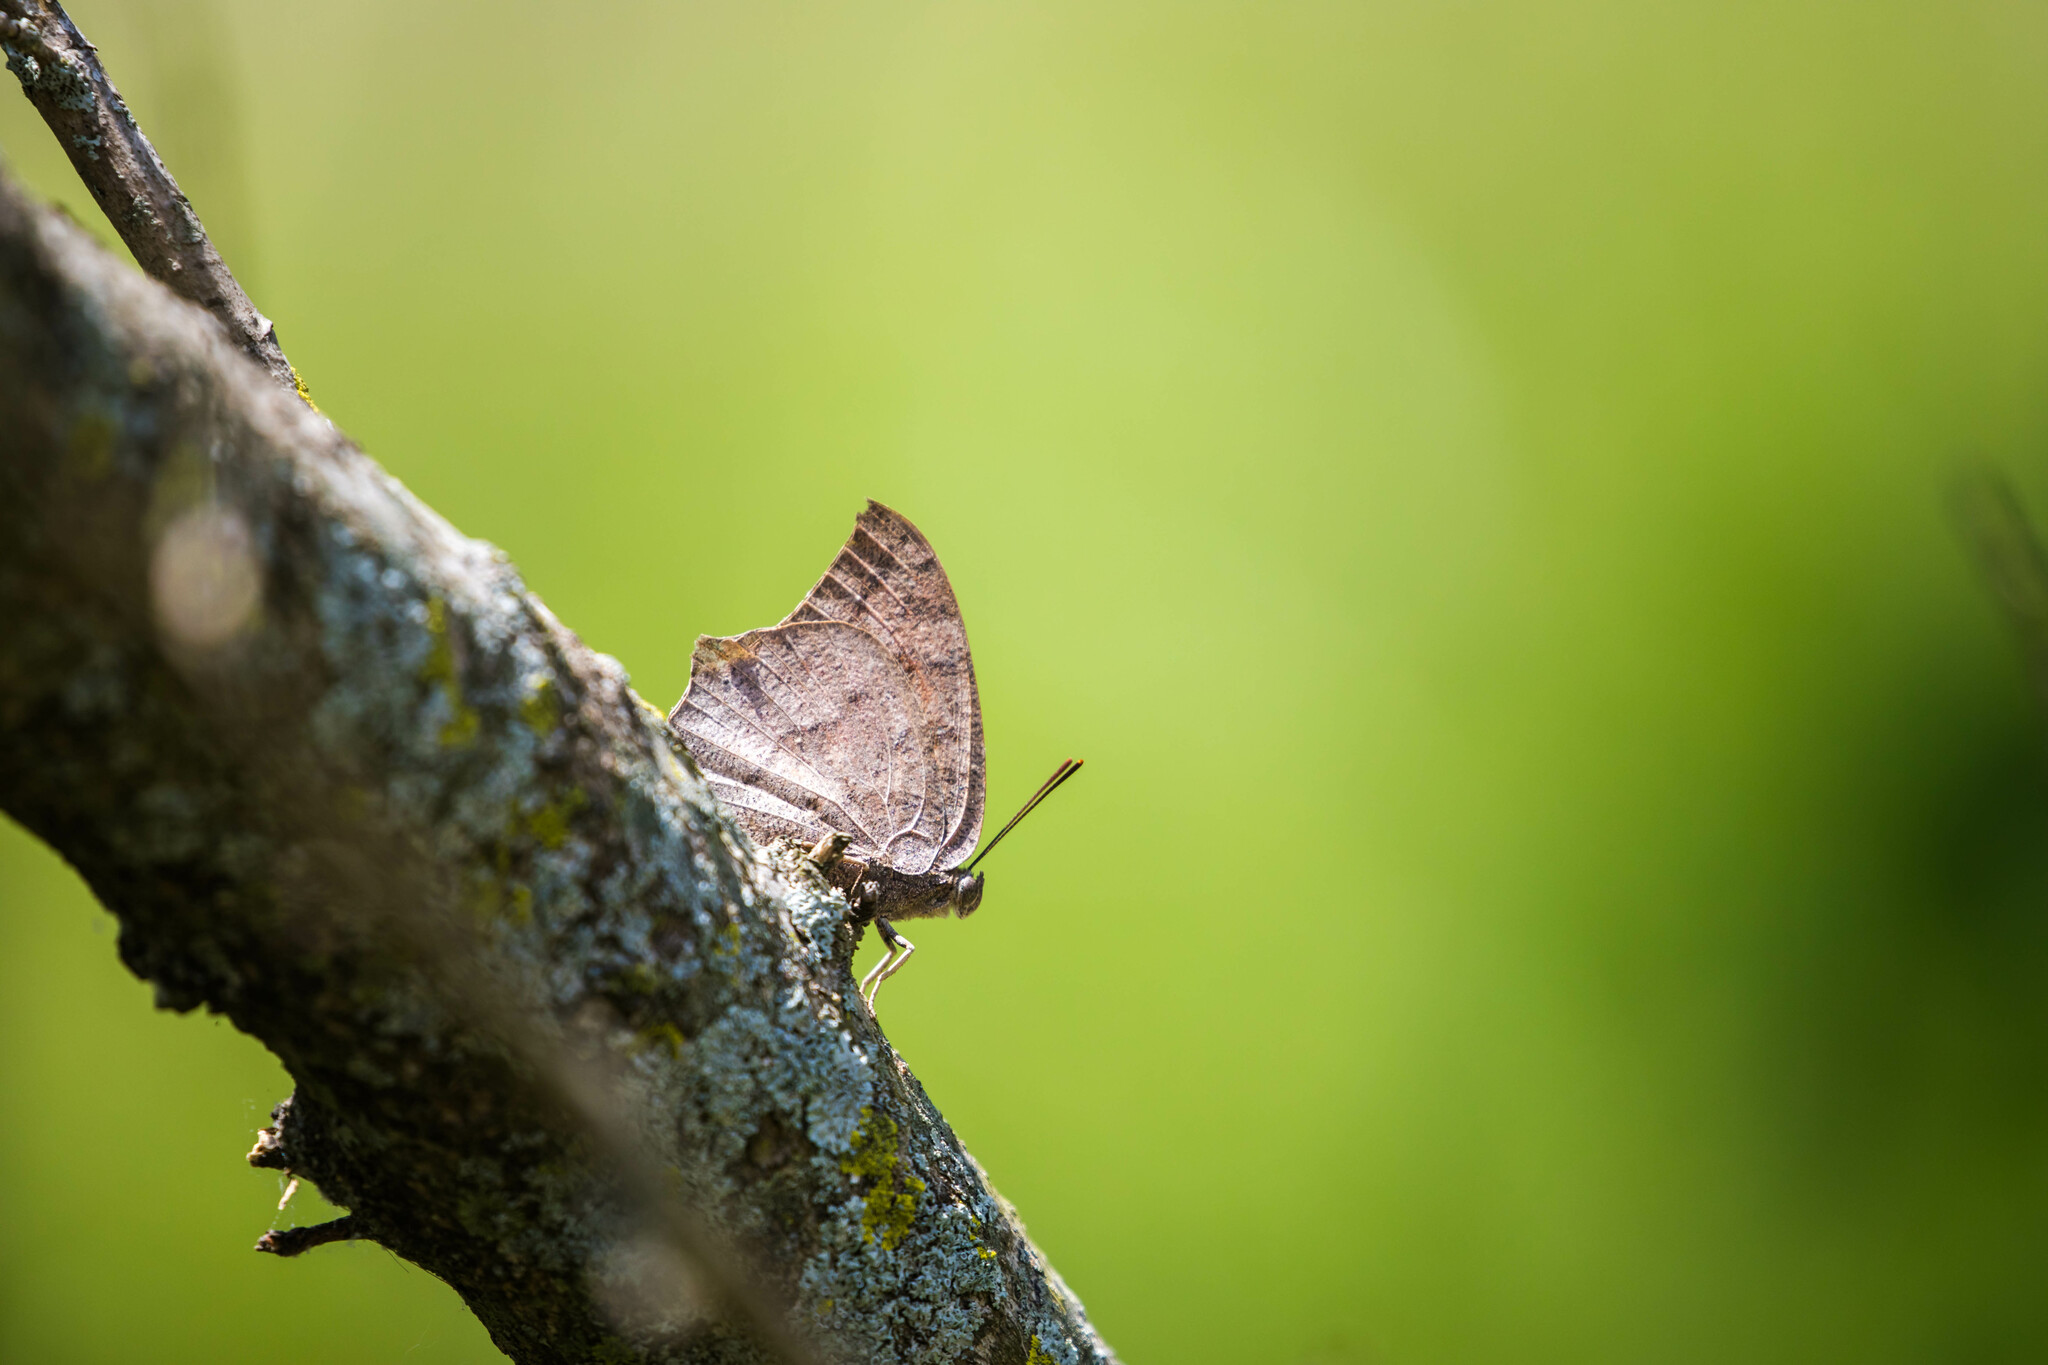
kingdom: Animalia
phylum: Arthropoda
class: Insecta
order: Lepidoptera
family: Nymphalidae
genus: Anaea
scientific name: Anaea andria
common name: Goatweed leafwing
